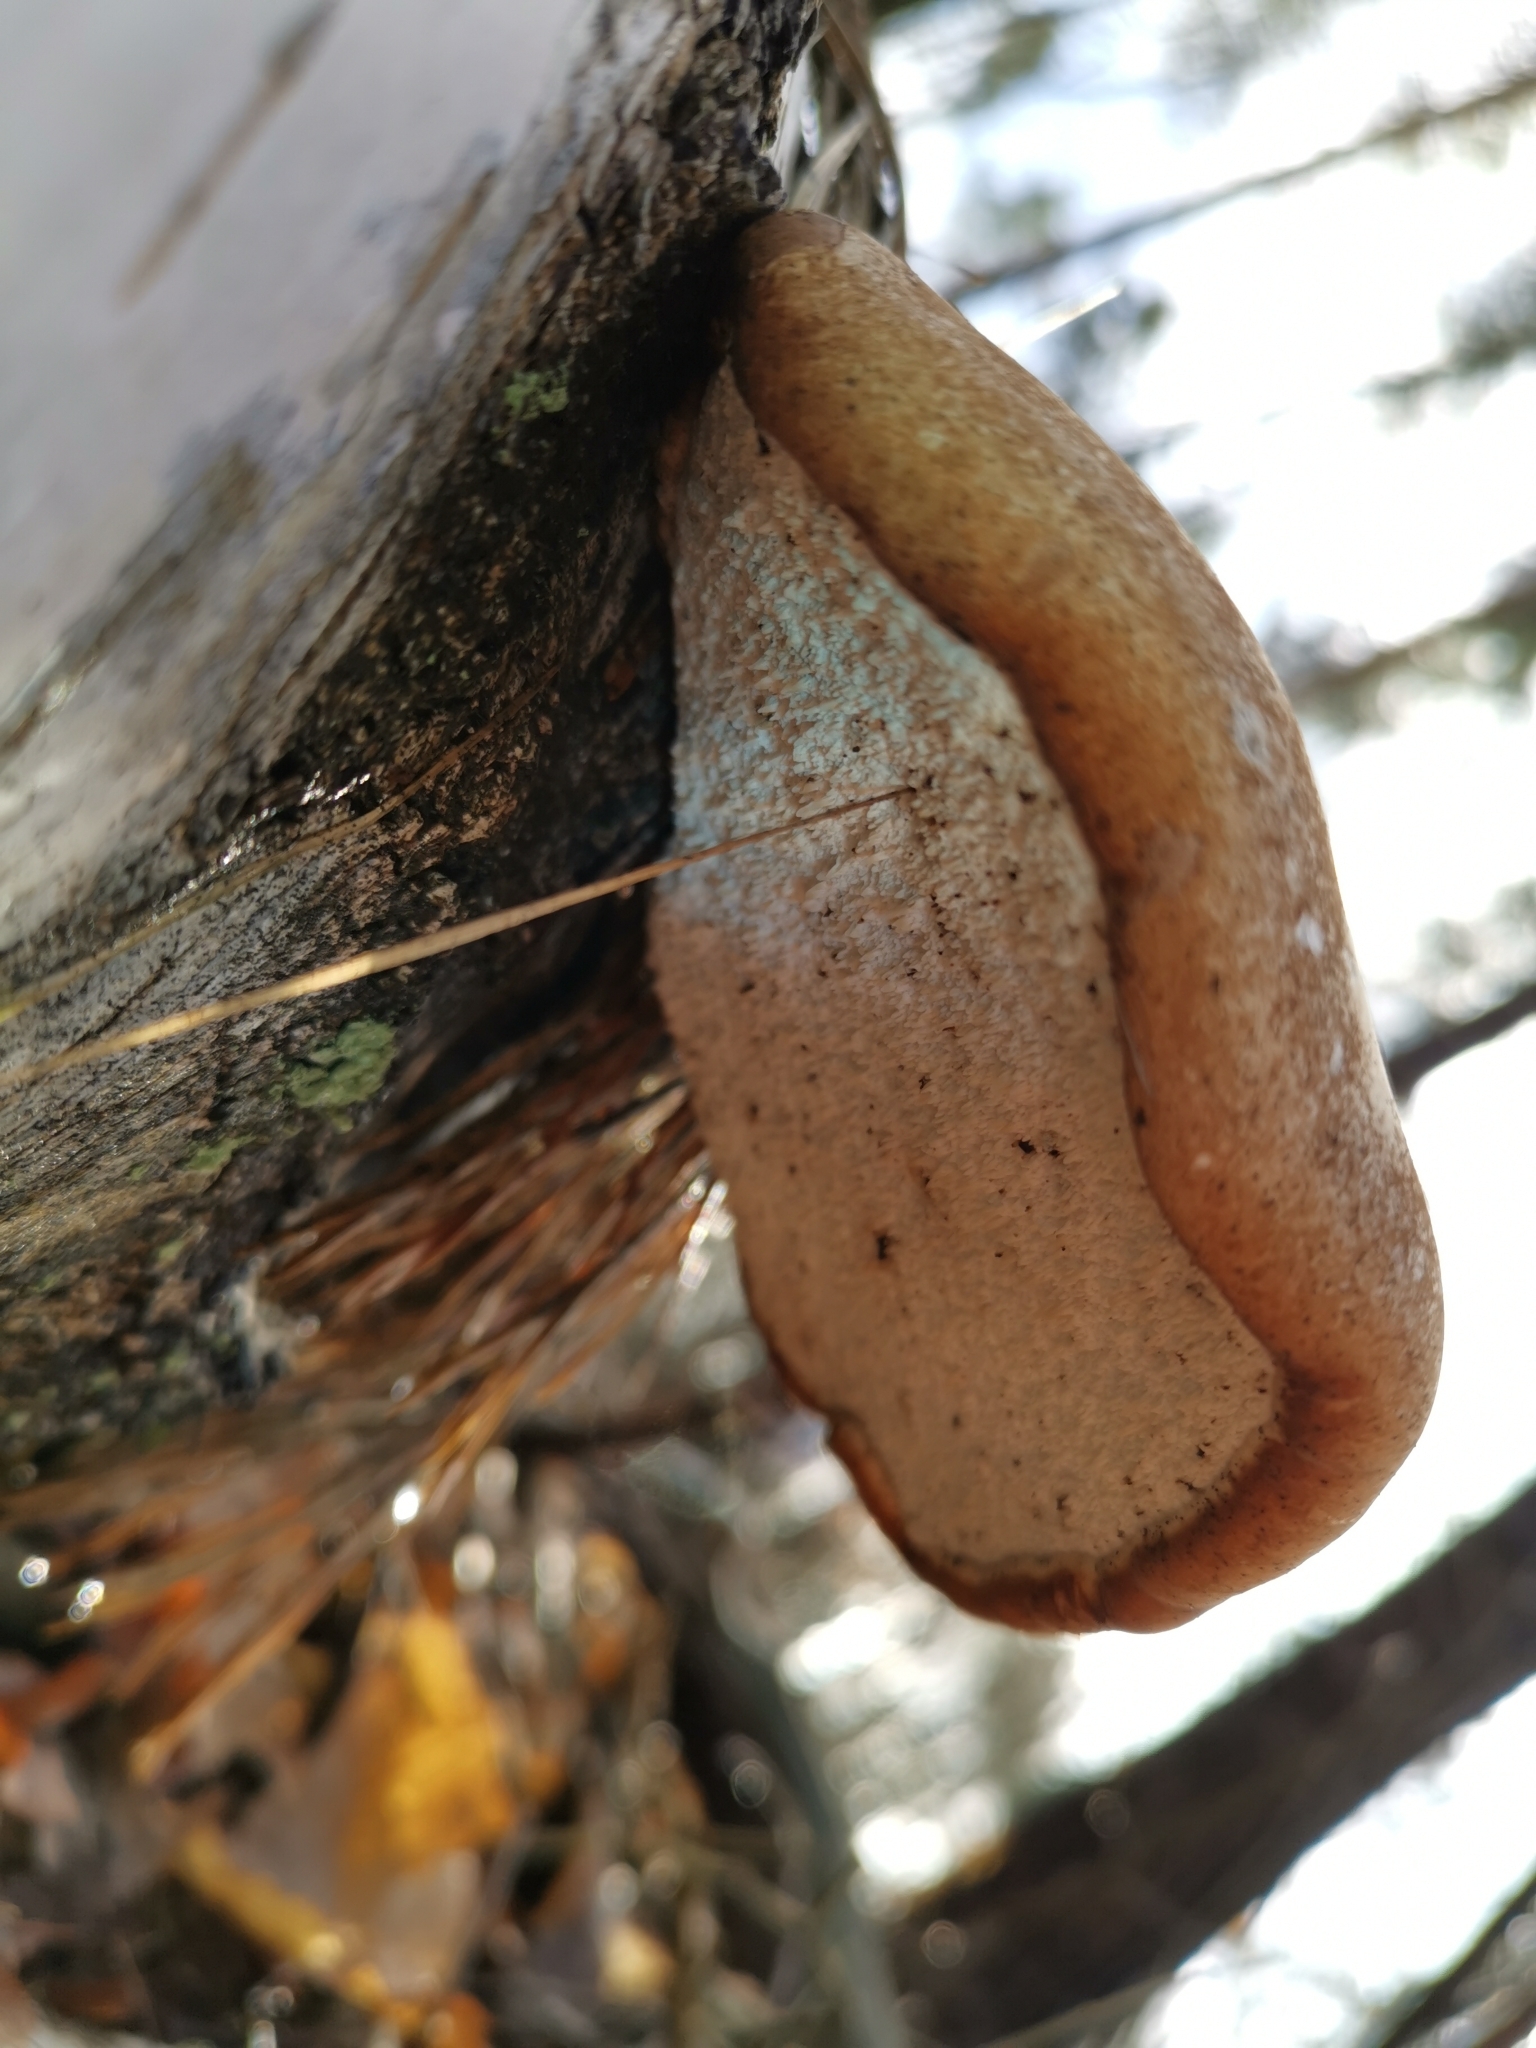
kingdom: Fungi
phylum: Basidiomycota
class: Agaricomycetes
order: Polyporales
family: Fomitopsidaceae
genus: Fomitopsis
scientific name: Fomitopsis betulina
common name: Birch polypore
